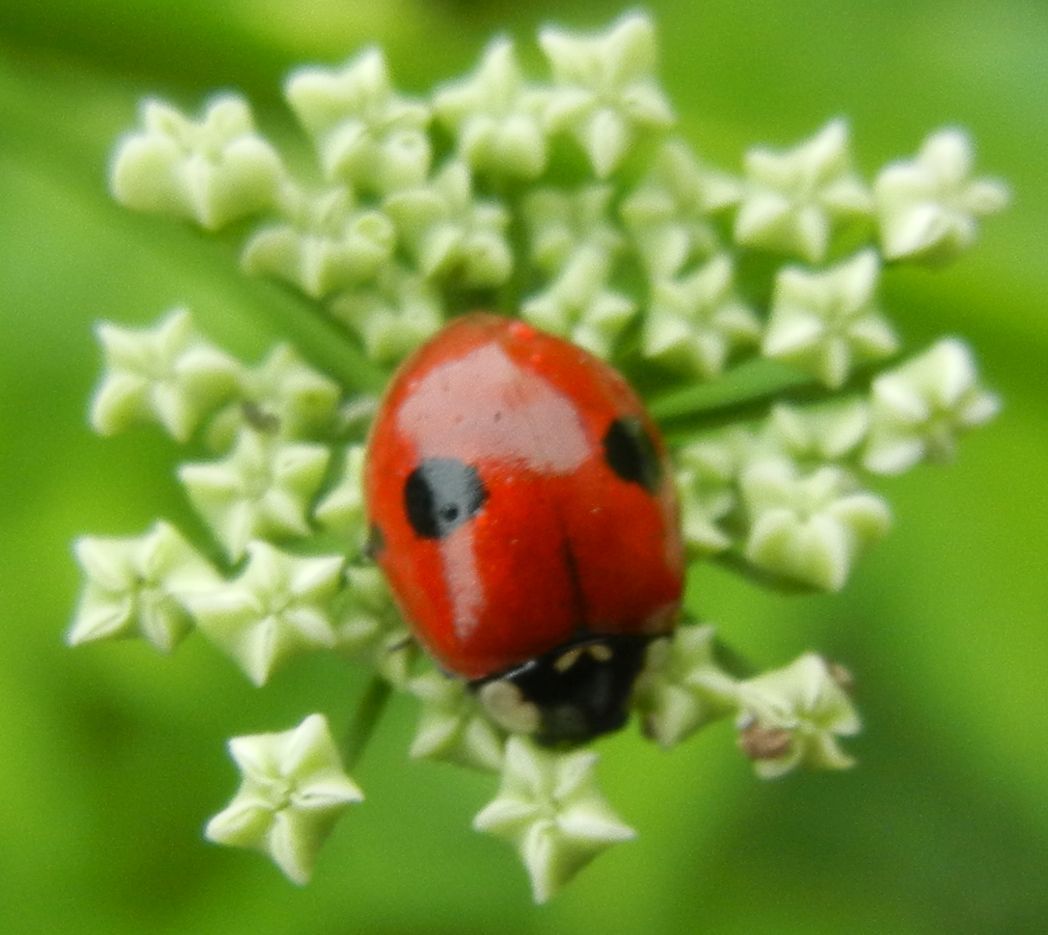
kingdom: Animalia
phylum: Arthropoda
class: Insecta
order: Coleoptera
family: Coccinellidae
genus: Adalia
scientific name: Adalia bipunctata
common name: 2-spot ladybird
